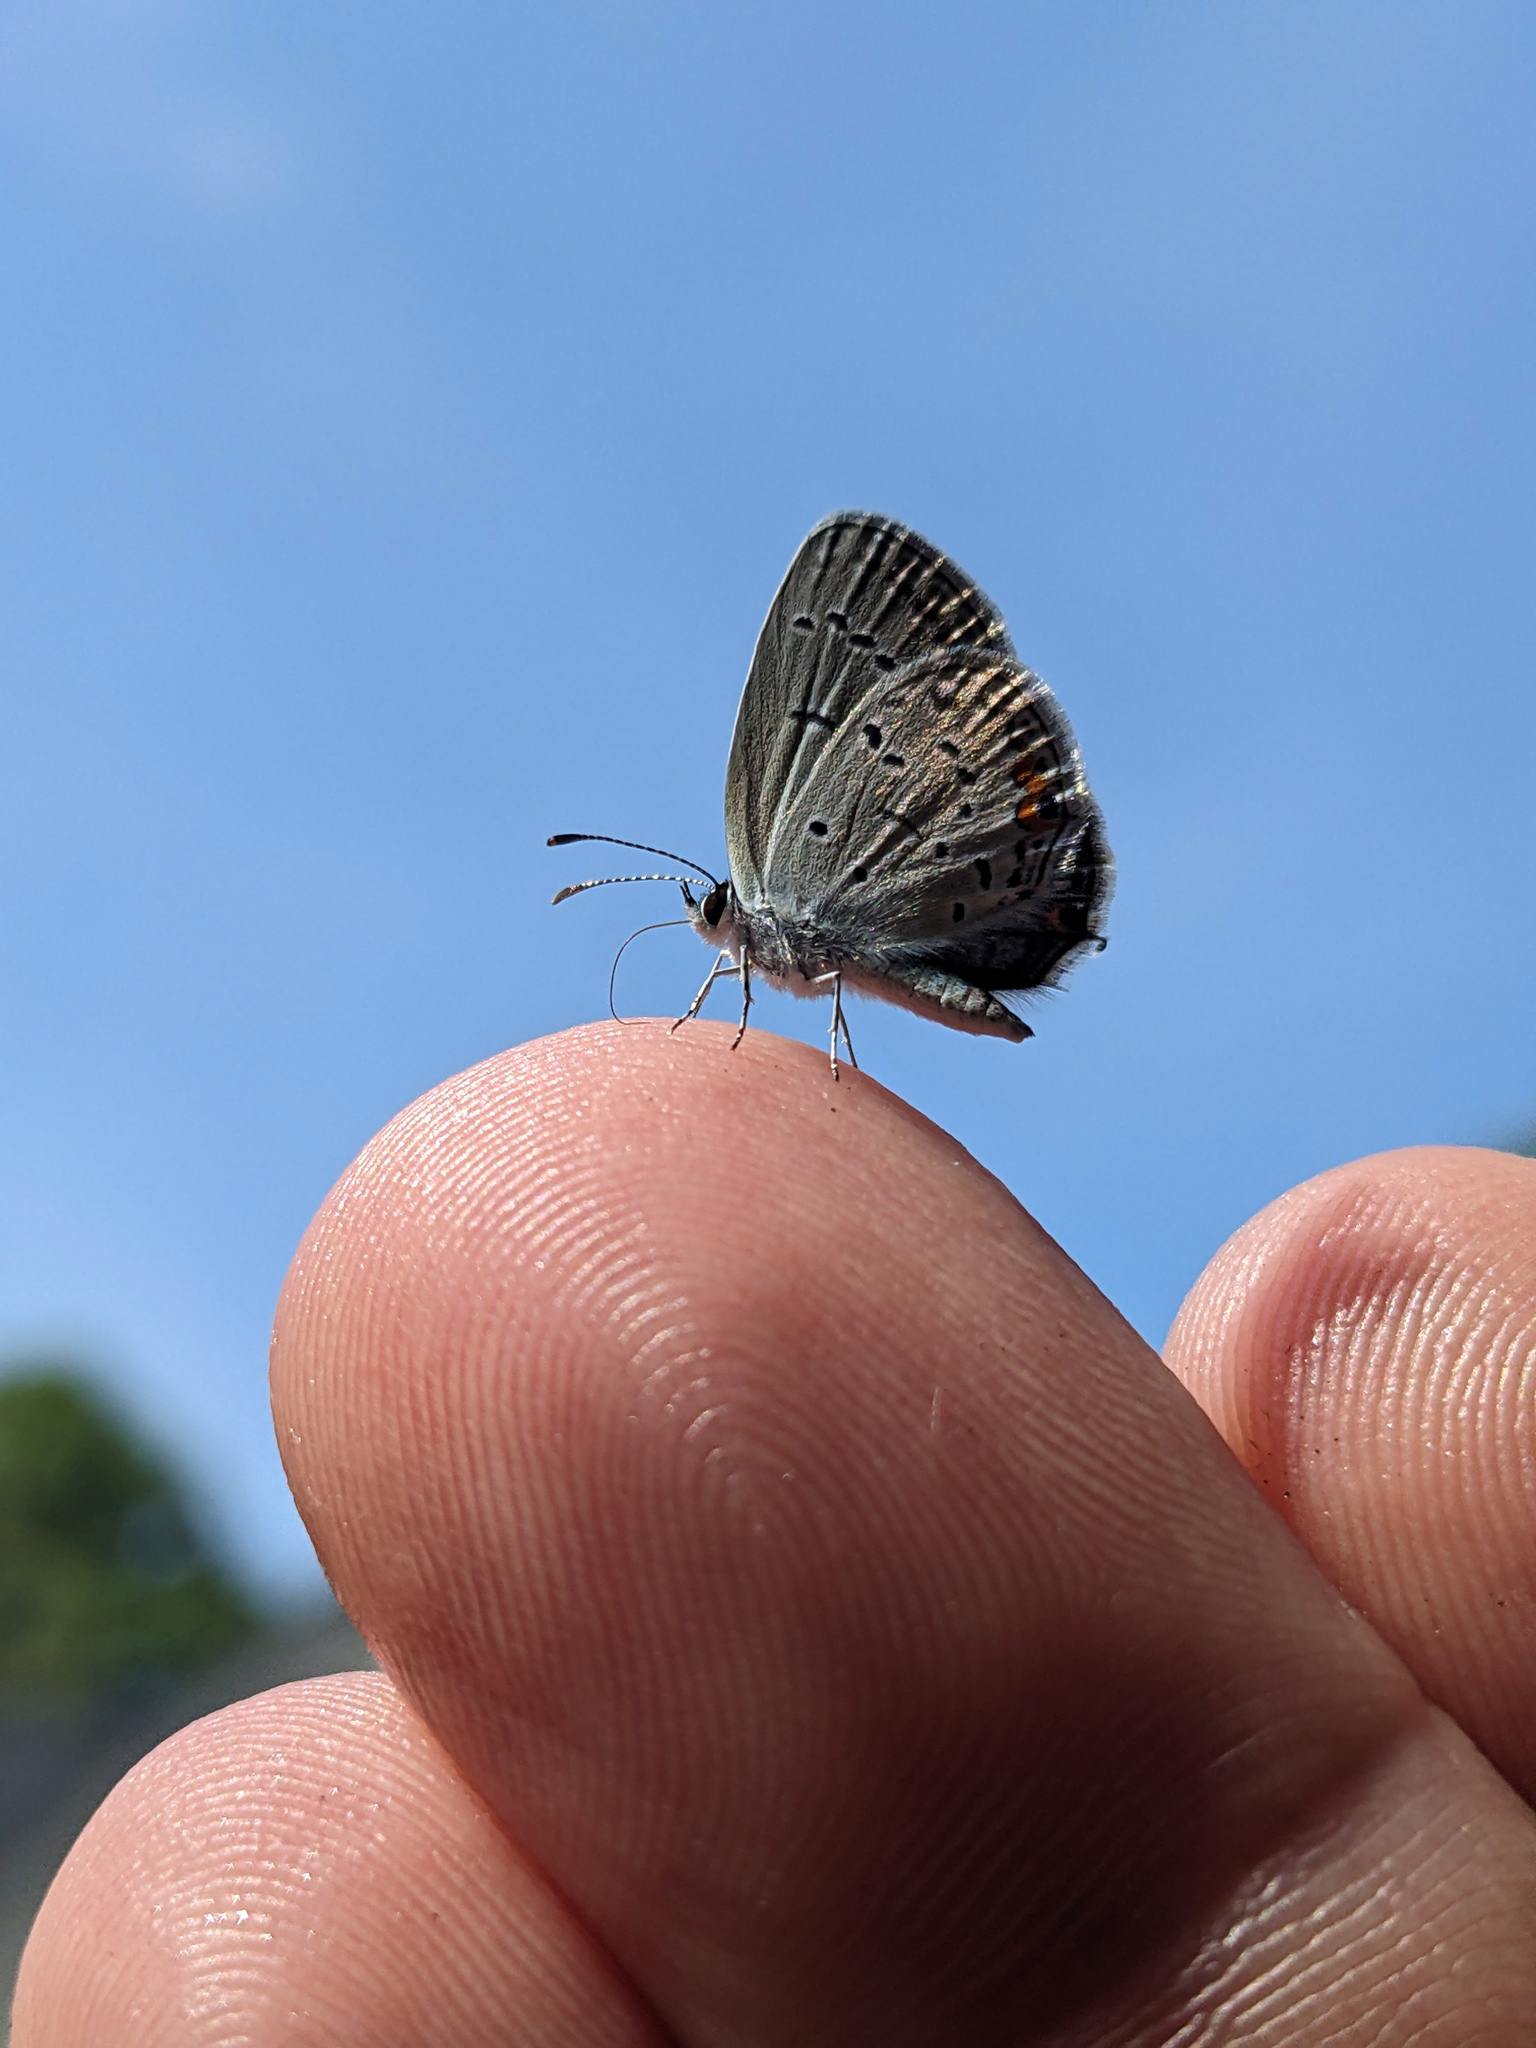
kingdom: Animalia
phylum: Arthropoda
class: Insecta
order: Lepidoptera
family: Lycaenidae
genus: Elkalyce
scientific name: Elkalyce comyntas
